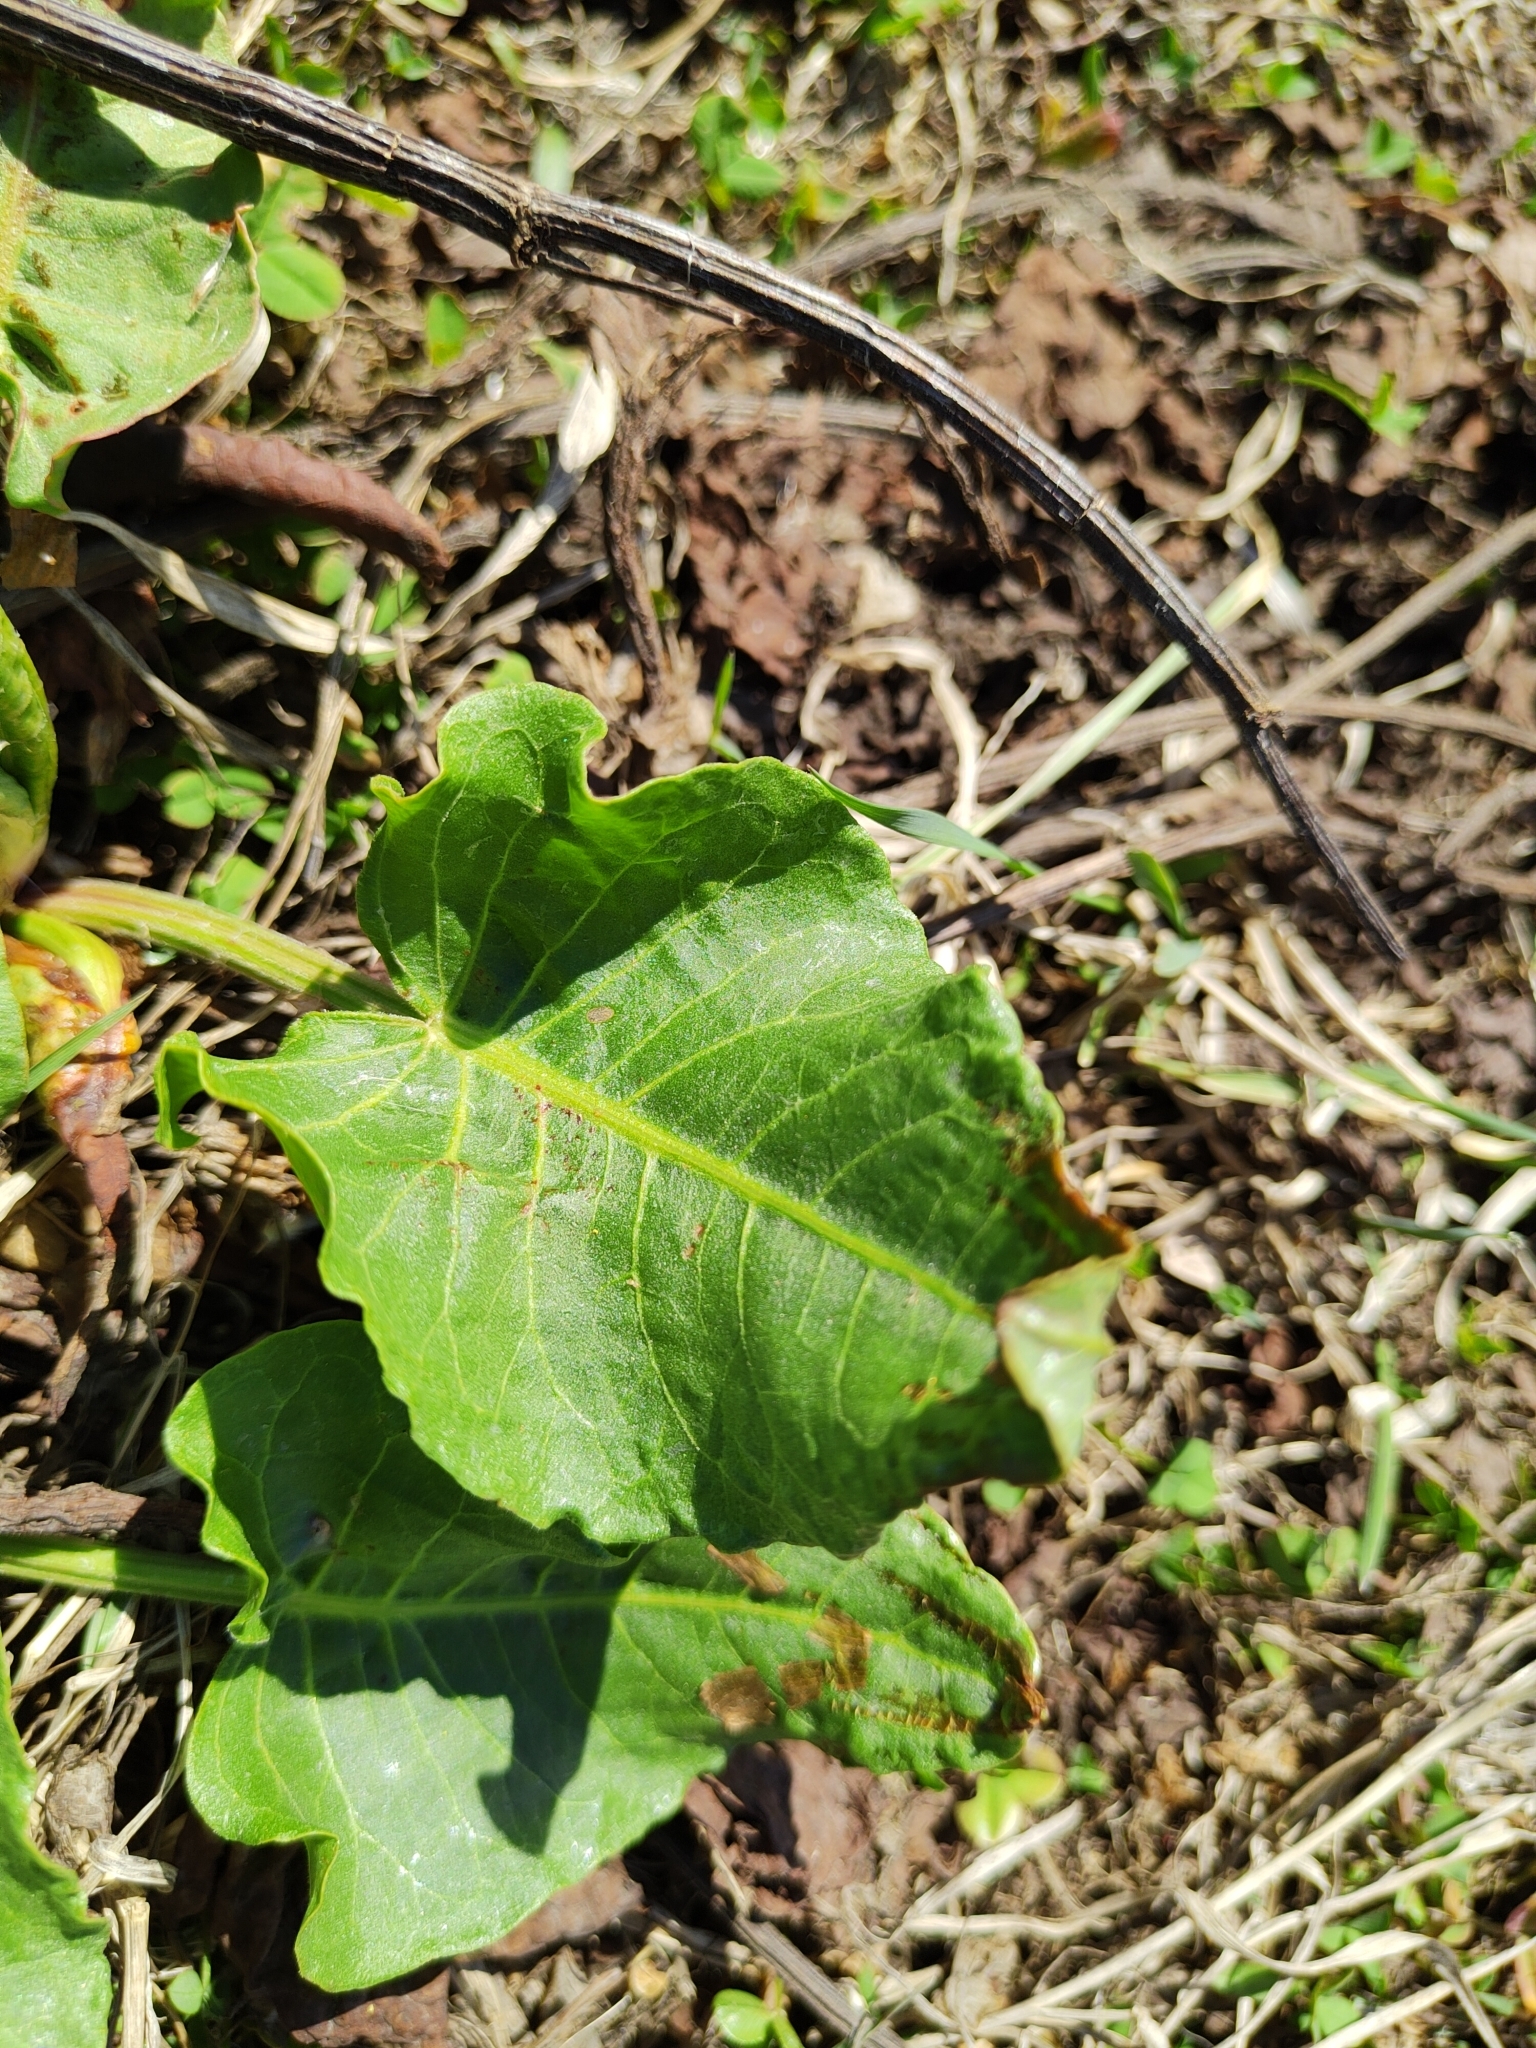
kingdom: Plantae
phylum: Tracheophyta
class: Magnoliopsida
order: Caryophyllales
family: Polygonaceae
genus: Rumex
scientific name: Rumex confertus
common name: Russian dock
